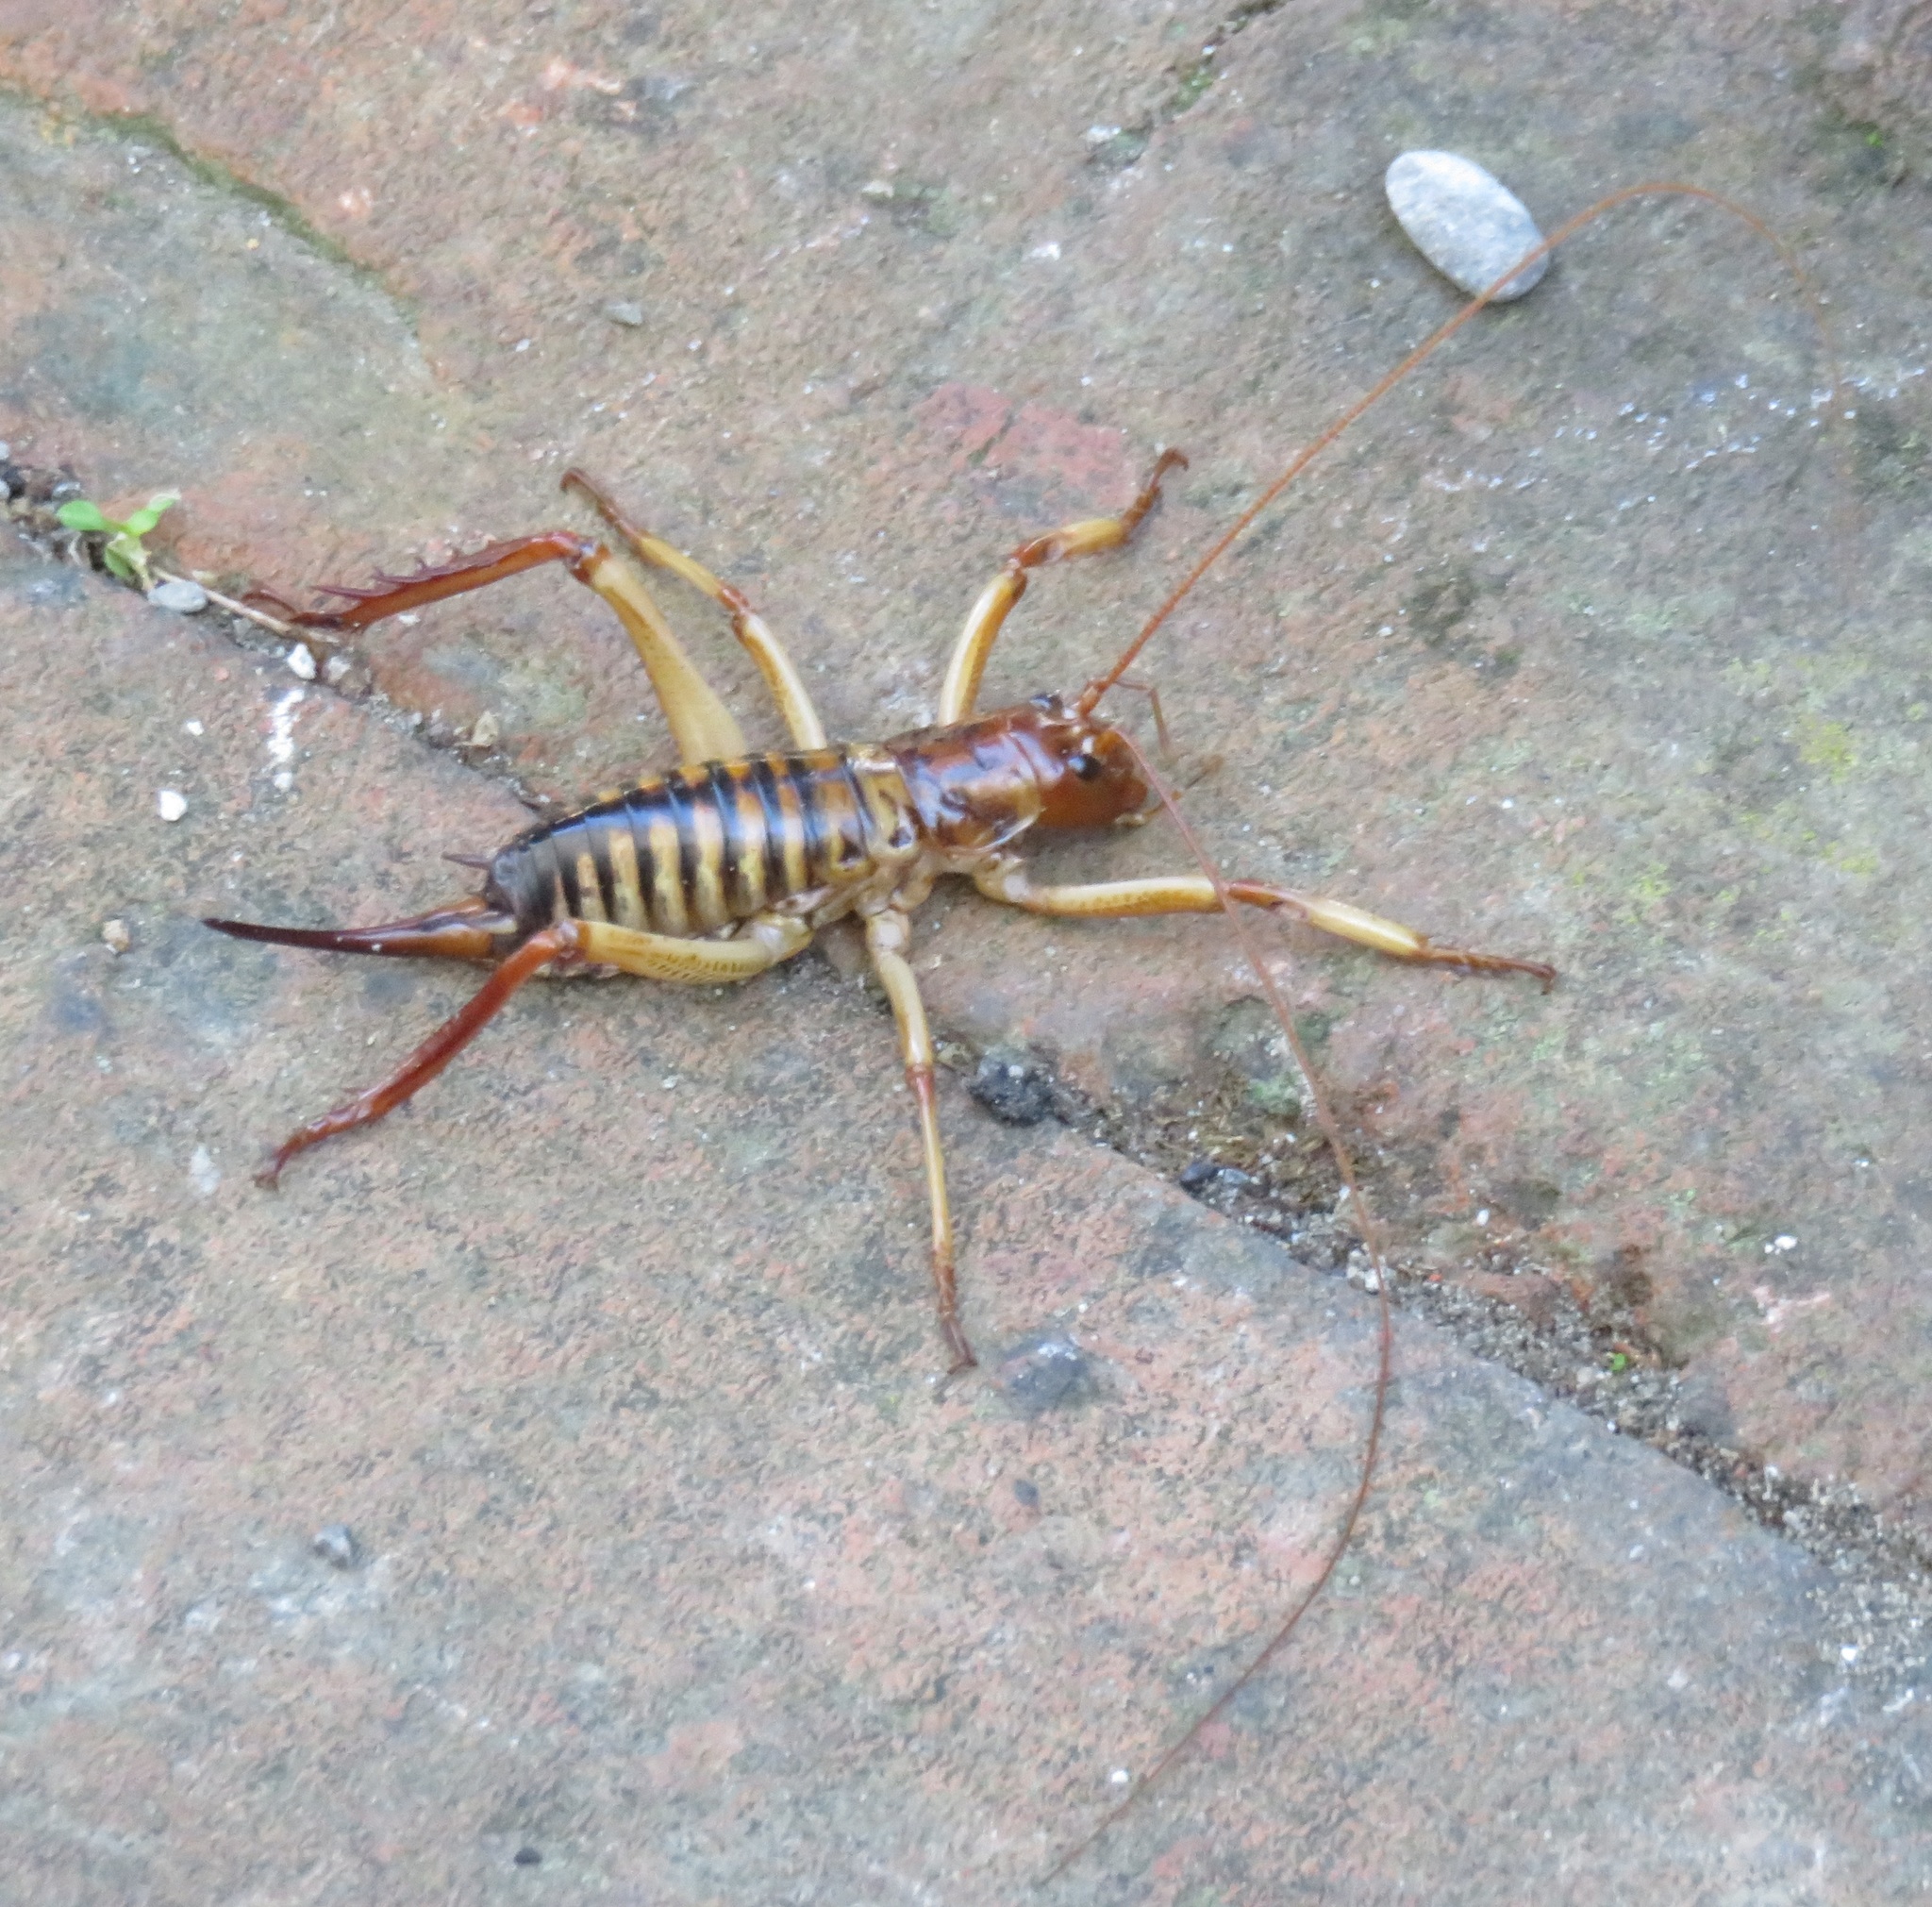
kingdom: Animalia
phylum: Arthropoda
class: Insecta
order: Orthoptera
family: Anostostomatidae
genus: Hemideina
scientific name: Hemideina crassidens
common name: Wellington tree weta
